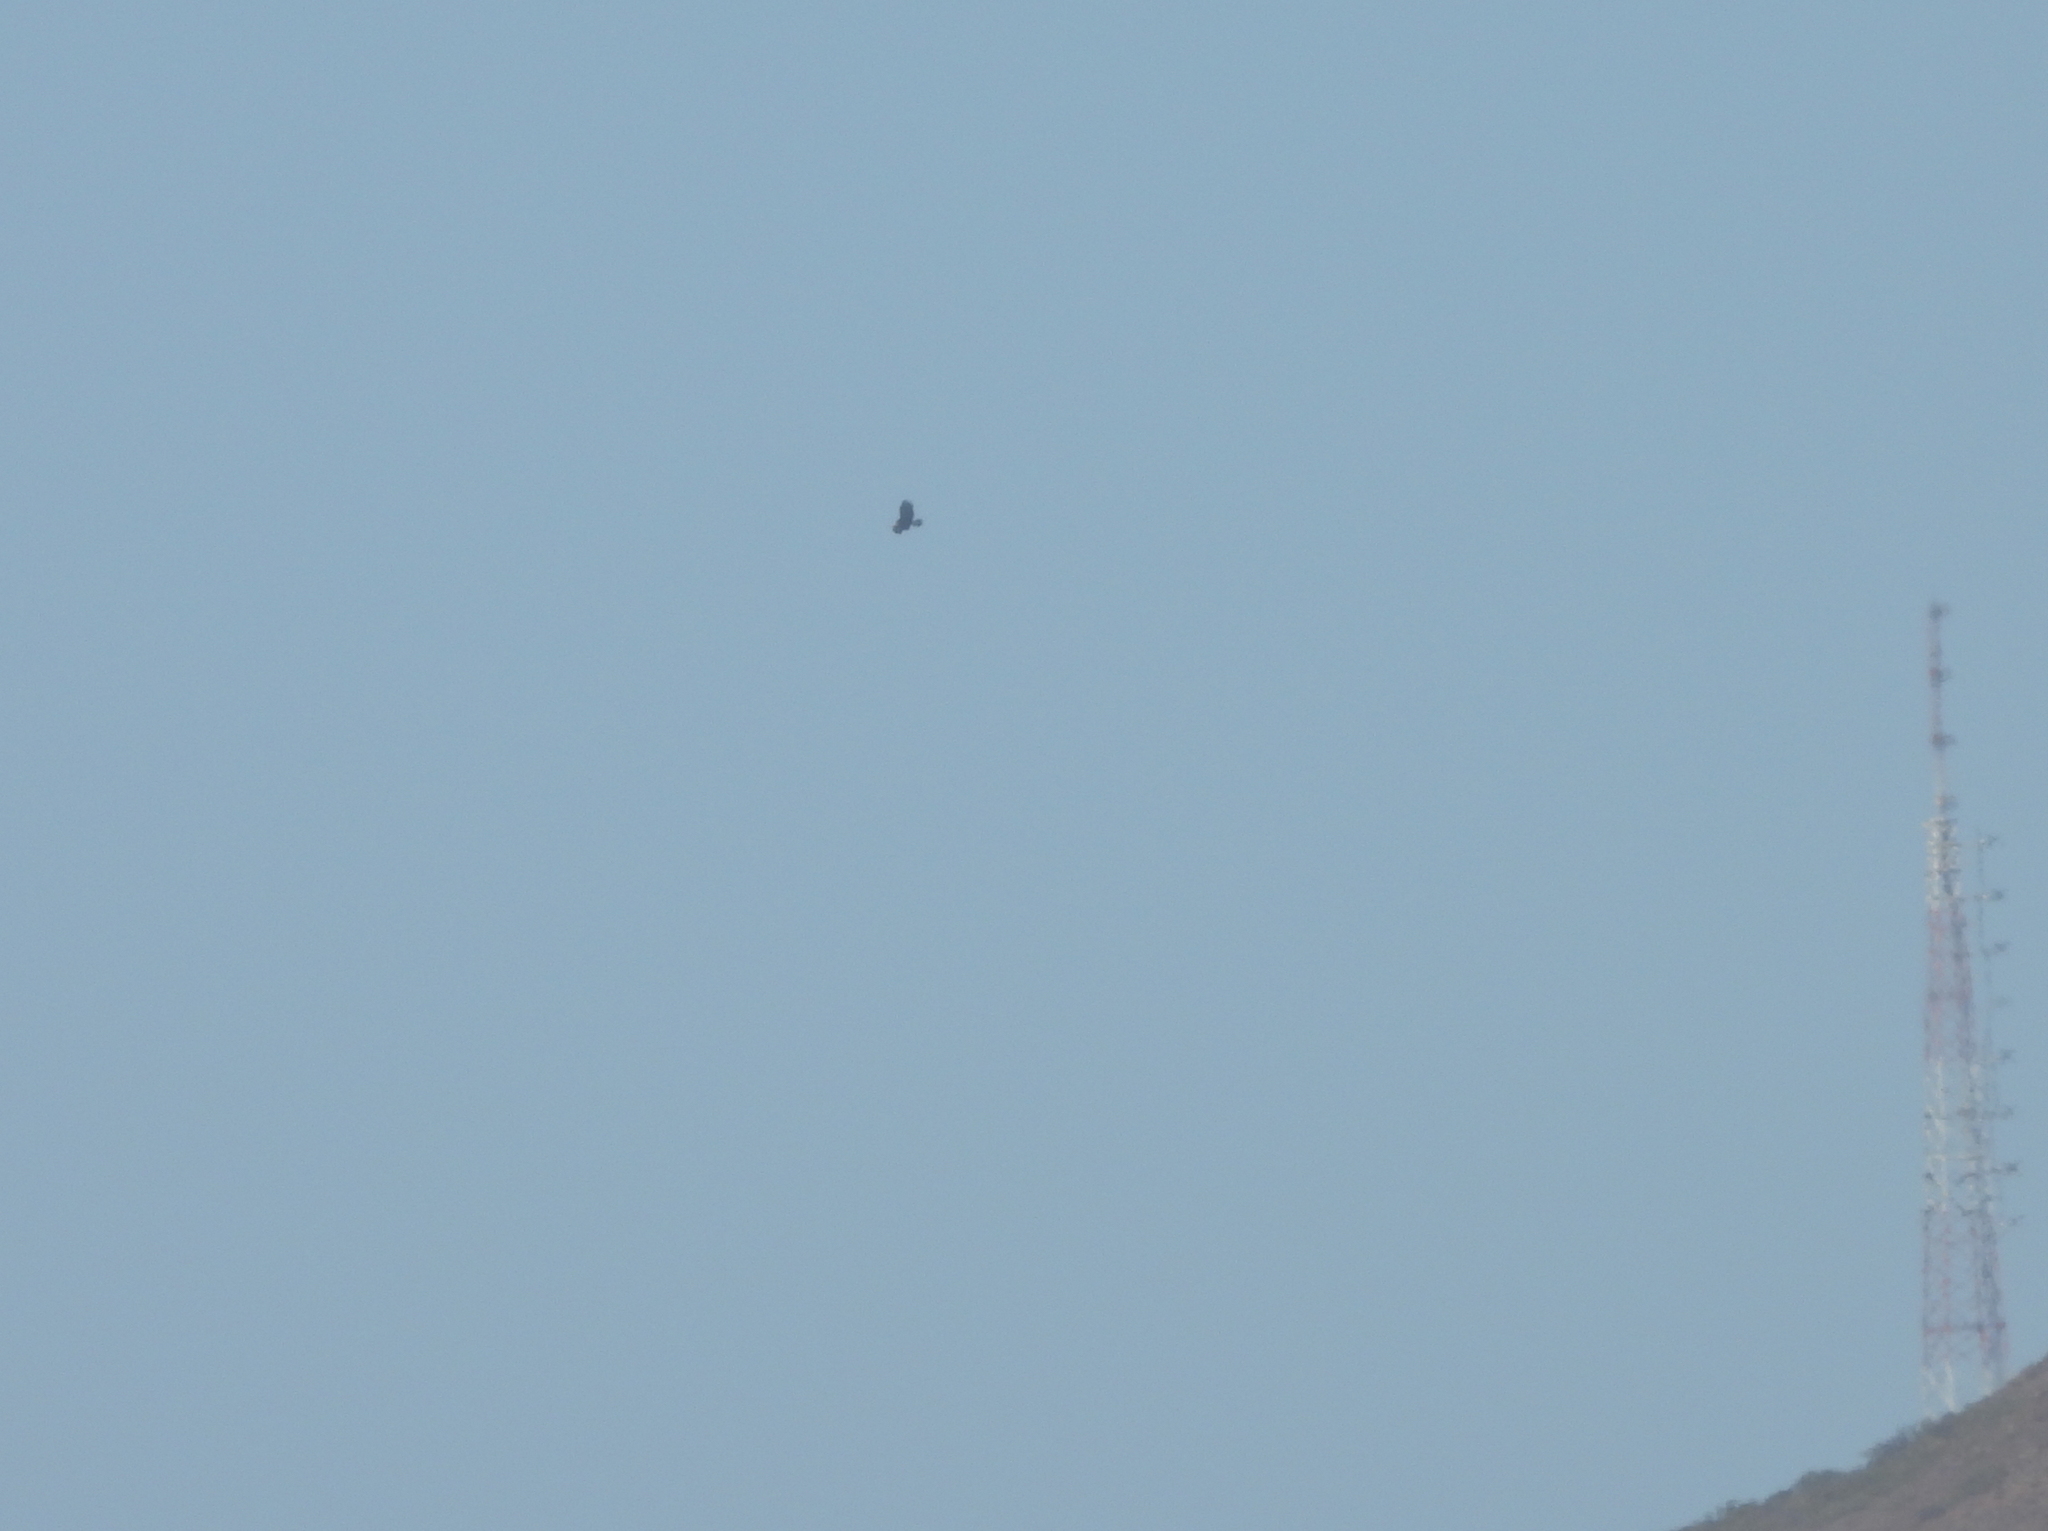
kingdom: Animalia
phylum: Chordata
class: Aves
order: Accipitriformes
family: Accipitridae
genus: Aquila
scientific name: Aquila chrysaetos
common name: Golden eagle
